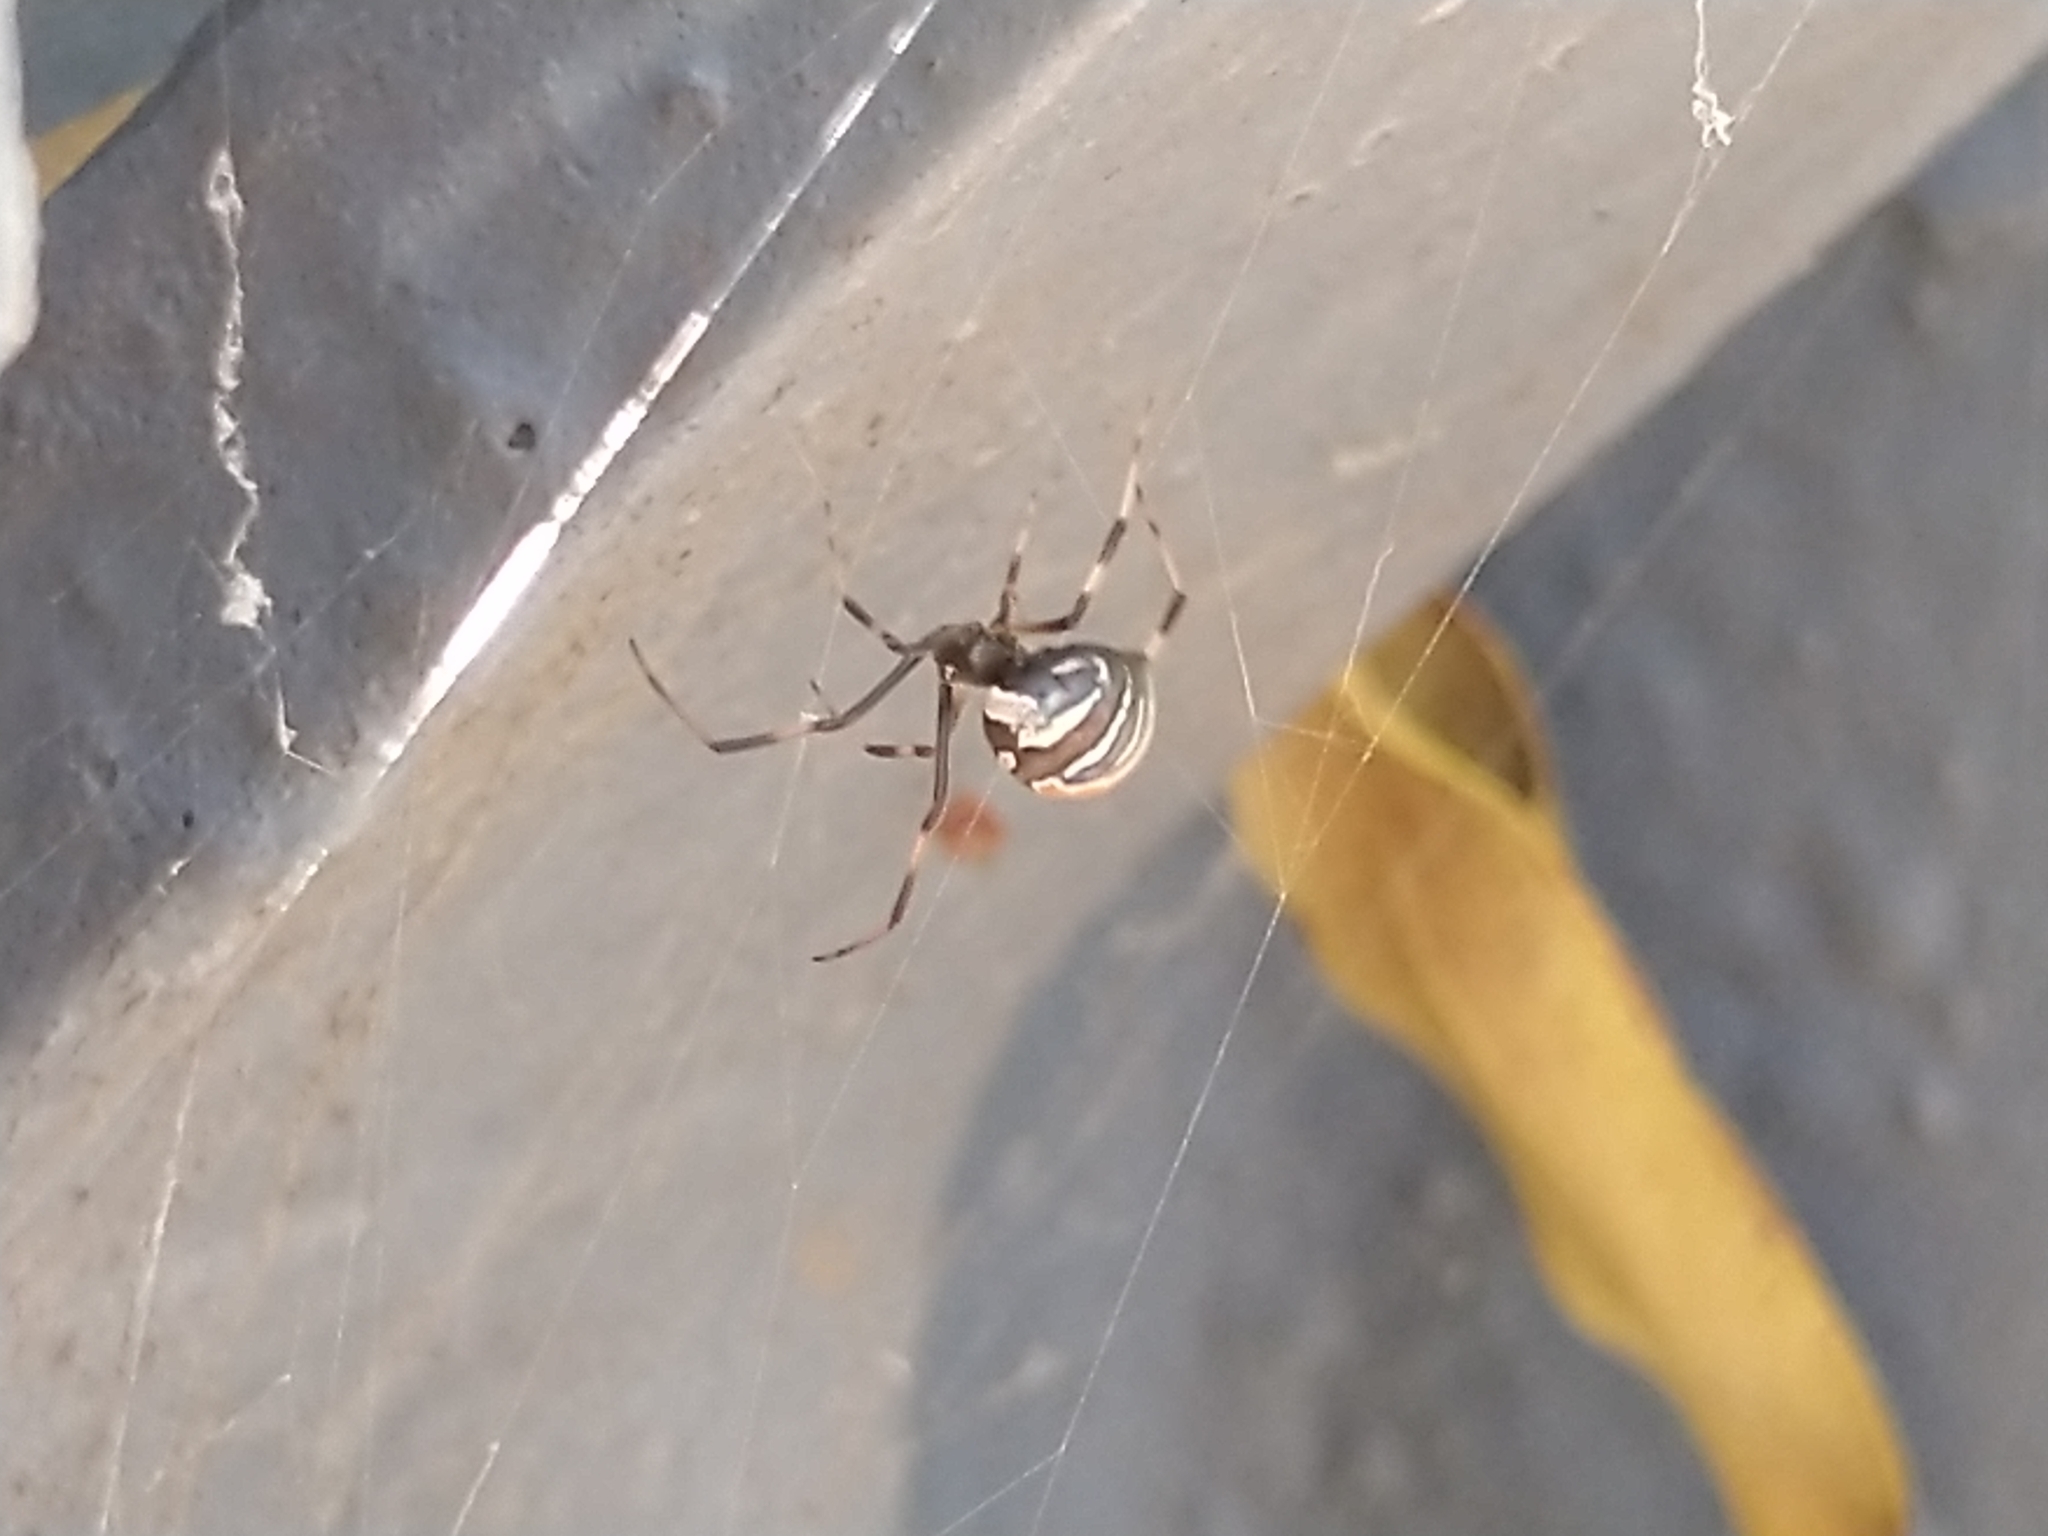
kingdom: Animalia
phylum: Arthropoda
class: Arachnida
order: Araneae
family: Theridiidae
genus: Latrodectus
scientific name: Latrodectus hasselti
